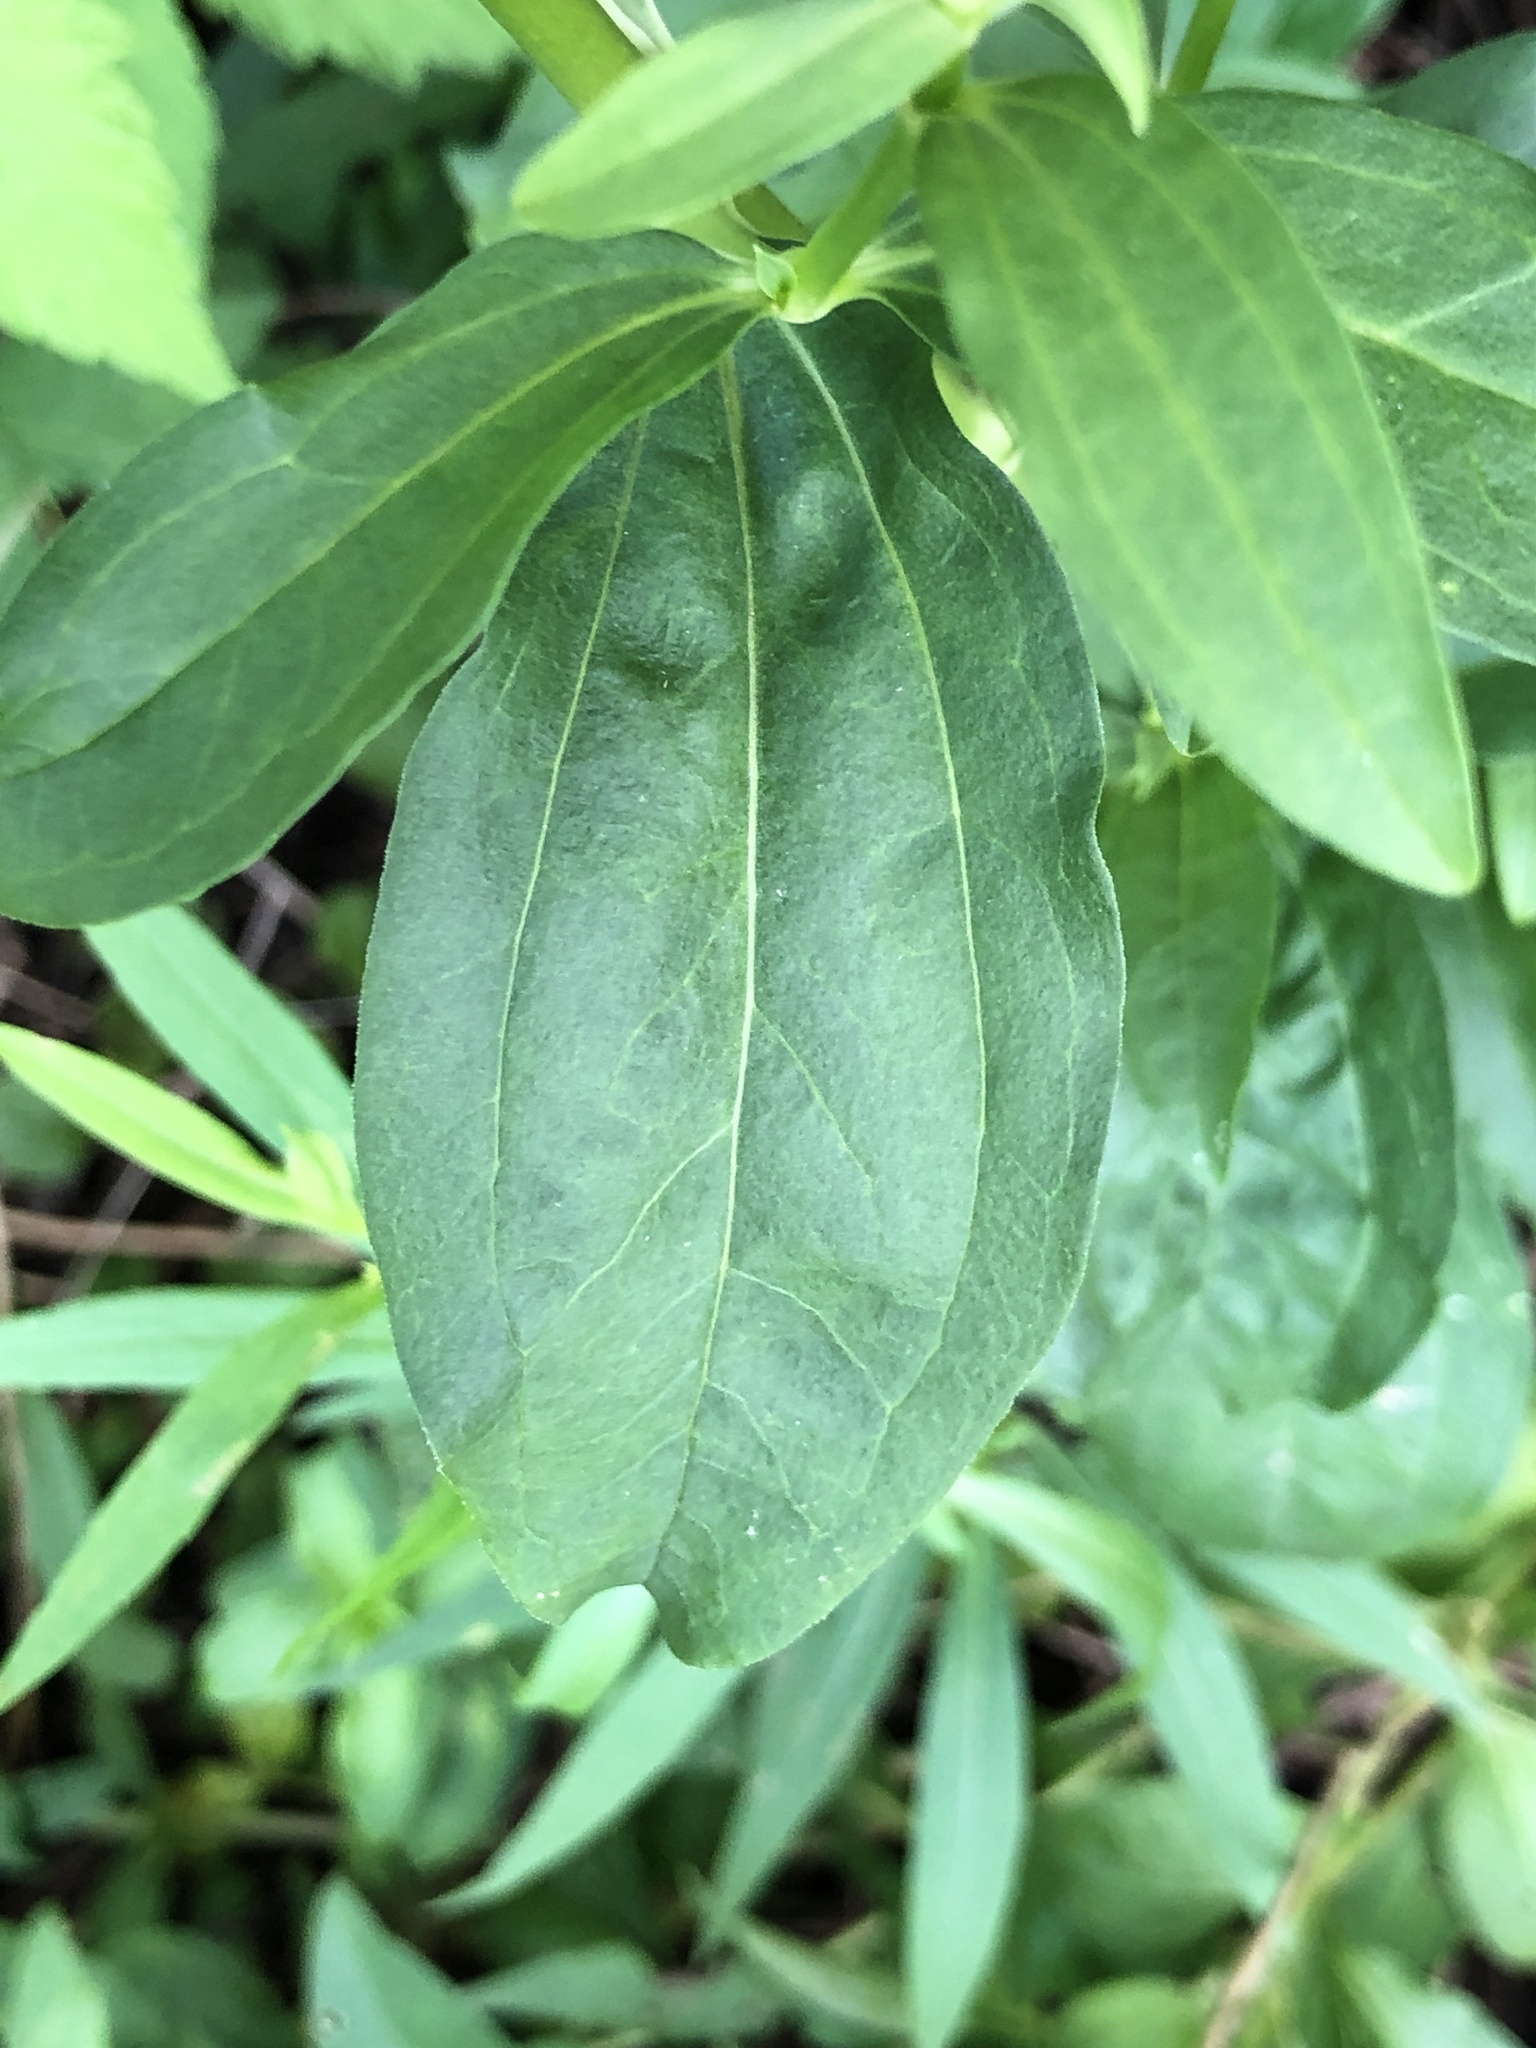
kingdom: Plantae
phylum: Tracheophyta
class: Magnoliopsida
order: Caryophyllales
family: Caryophyllaceae
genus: Saponaria
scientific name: Saponaria officinalis
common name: Soapwort
